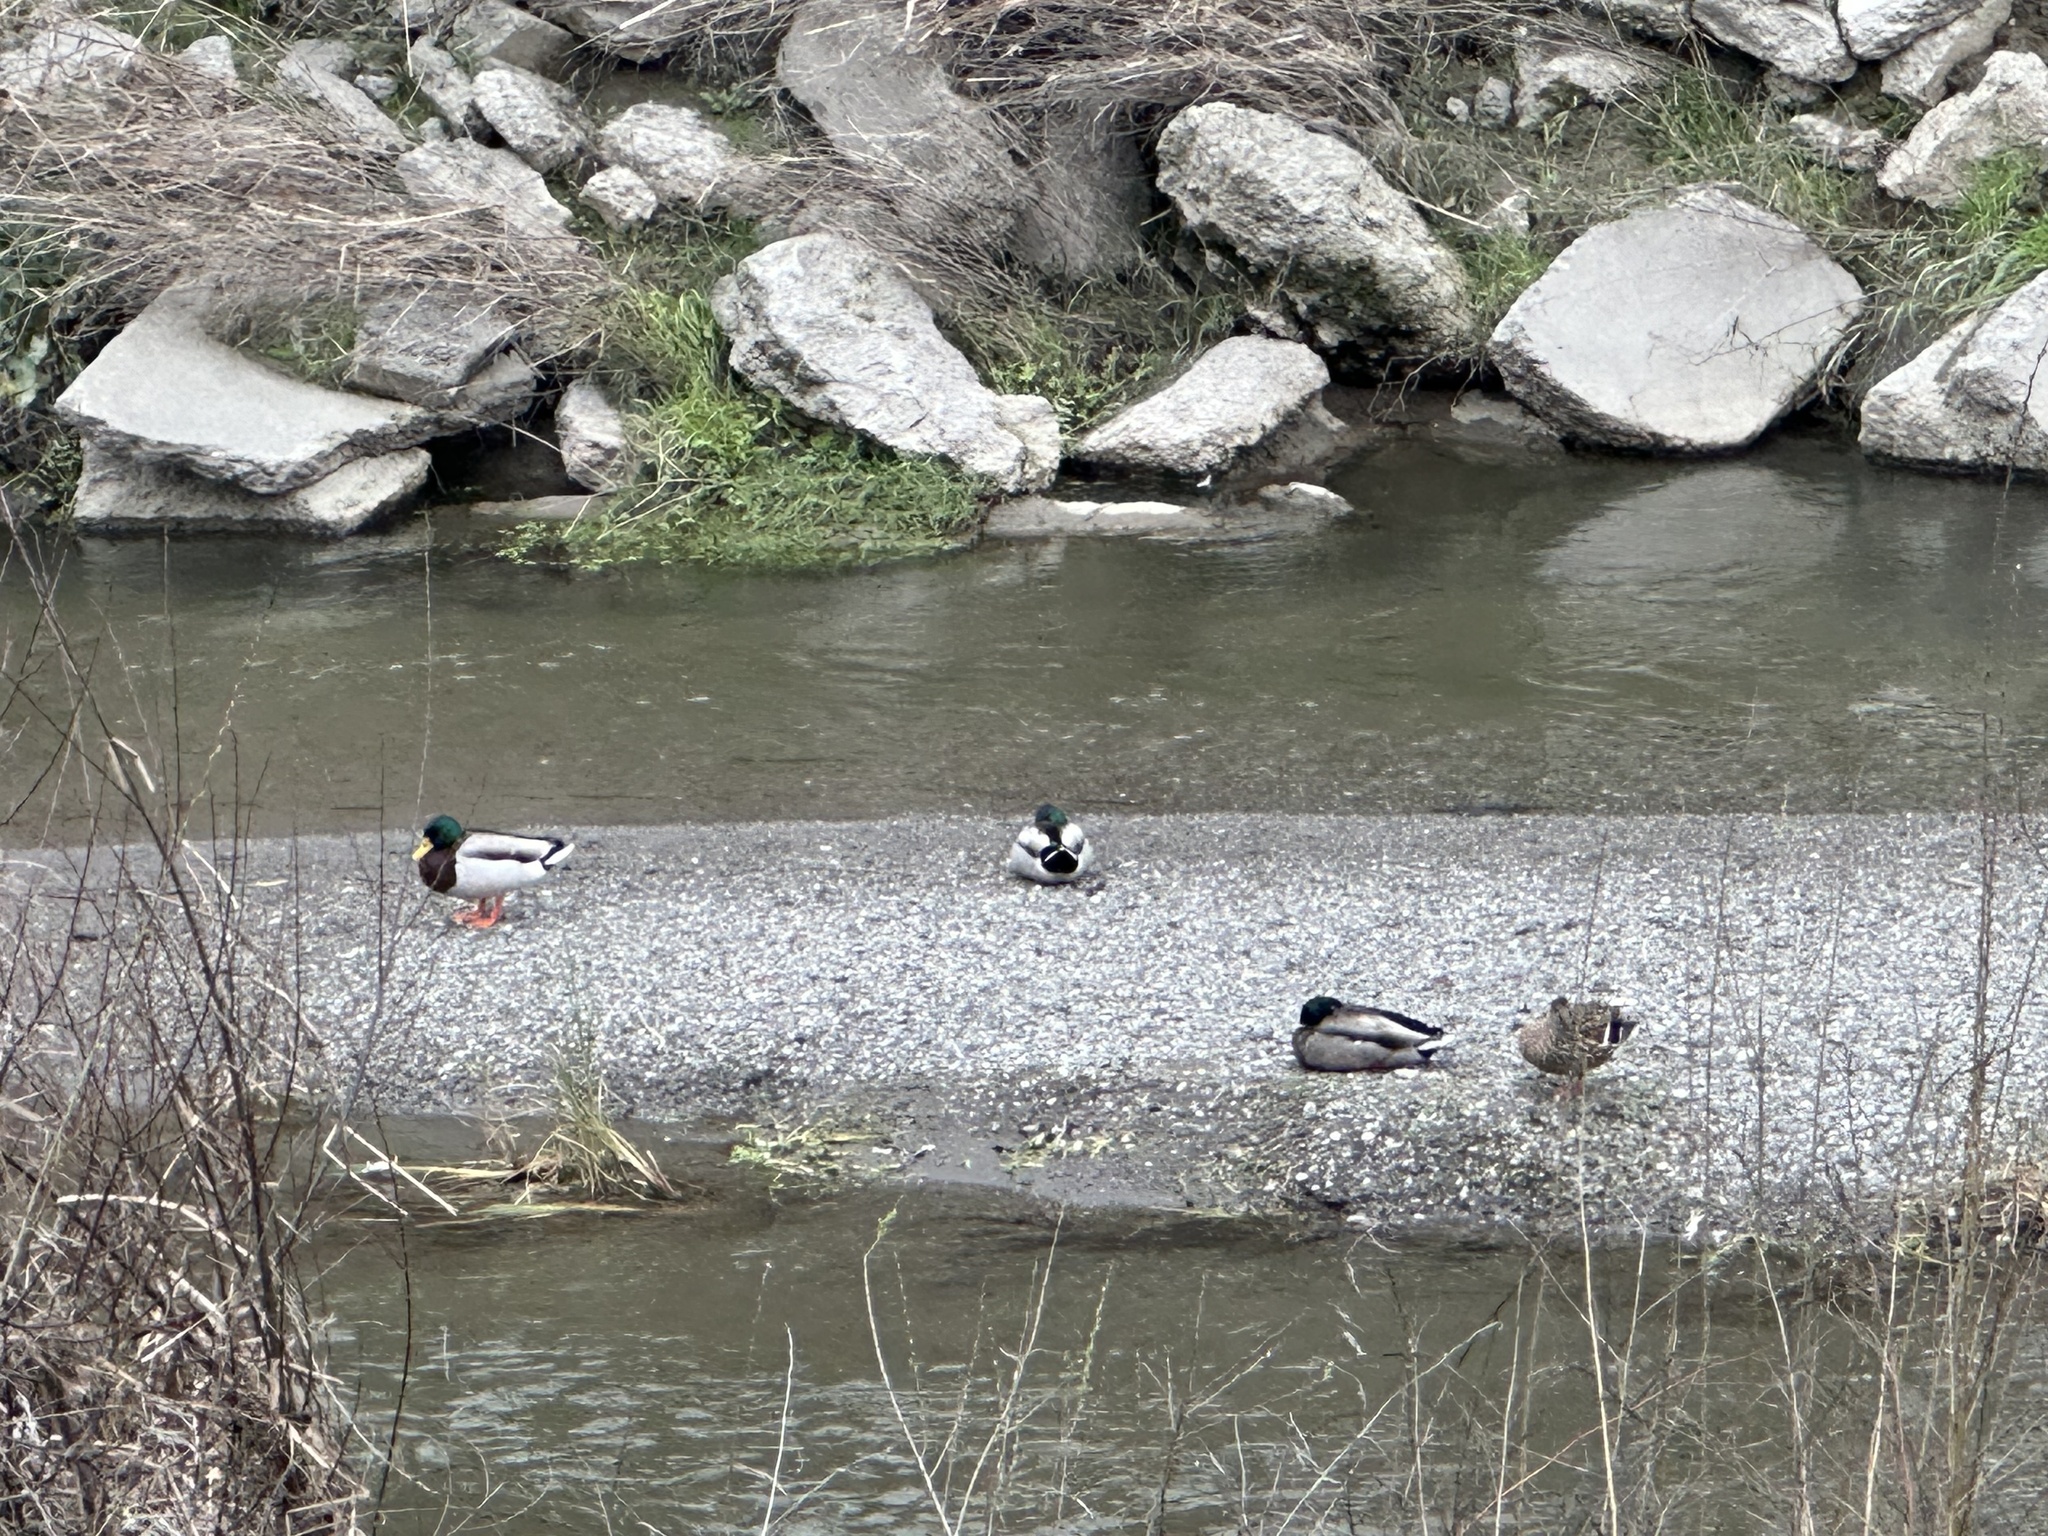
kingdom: Animalia
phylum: Chordata
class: Aves
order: Anseriformes
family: Anatidae
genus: Anas
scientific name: Anas platyrhynchos
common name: Mallard
